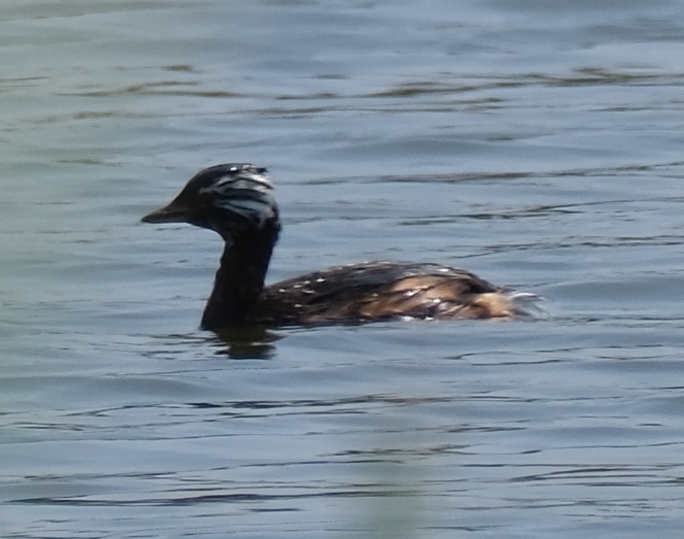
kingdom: Animalia
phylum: Chordata
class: Aves
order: Podicipediformes
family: Podicipedidae
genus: Rollandia
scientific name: Rollandia rolland
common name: White-tufted grebe
